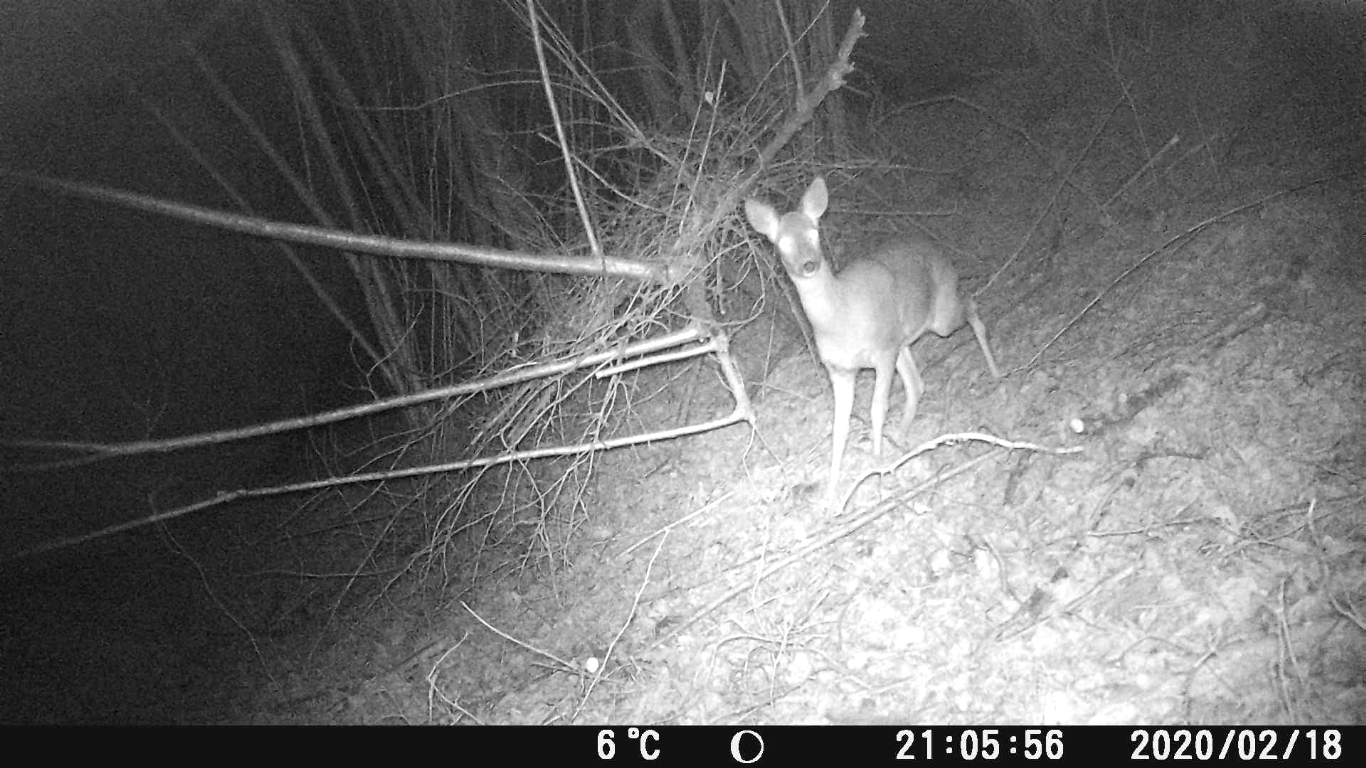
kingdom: Animalia
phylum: Chordata
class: Mammalia
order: Artiodactyla
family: Cervidae
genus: Capreolus
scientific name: Capreolus capreolus
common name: Western roe deer
